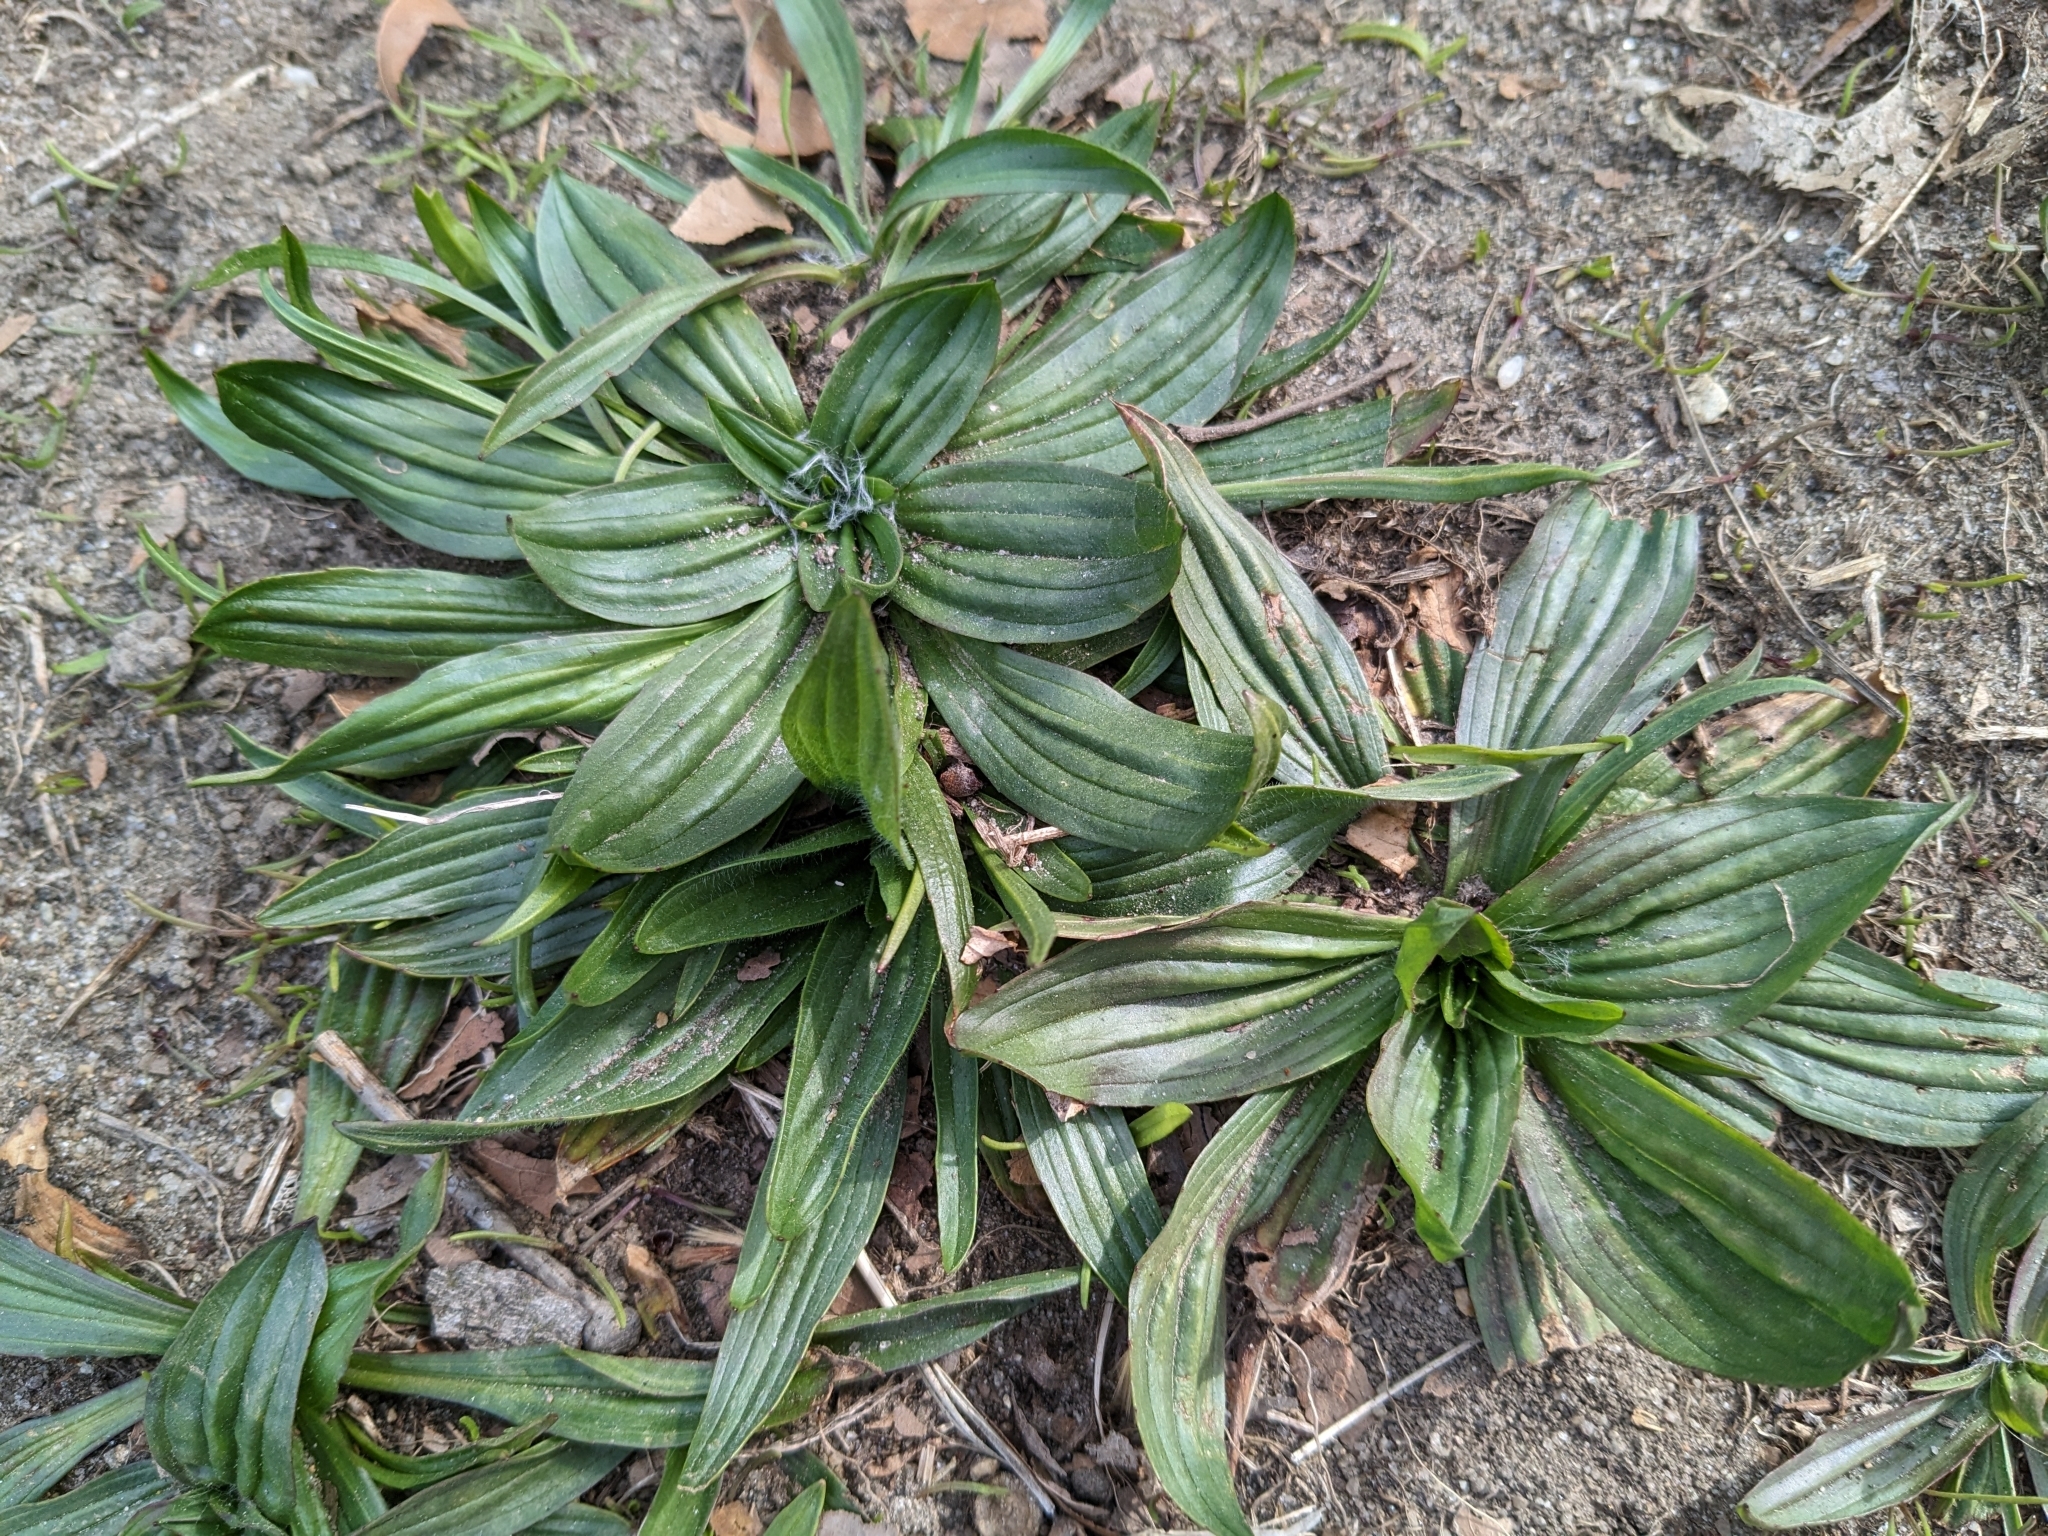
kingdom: Plantae
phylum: Tracheophyta
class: Magnoliopsida
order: Lamiales
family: Plantaginaceae
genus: Plantago
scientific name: Plantago lanceolata
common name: Ribwort plantain
